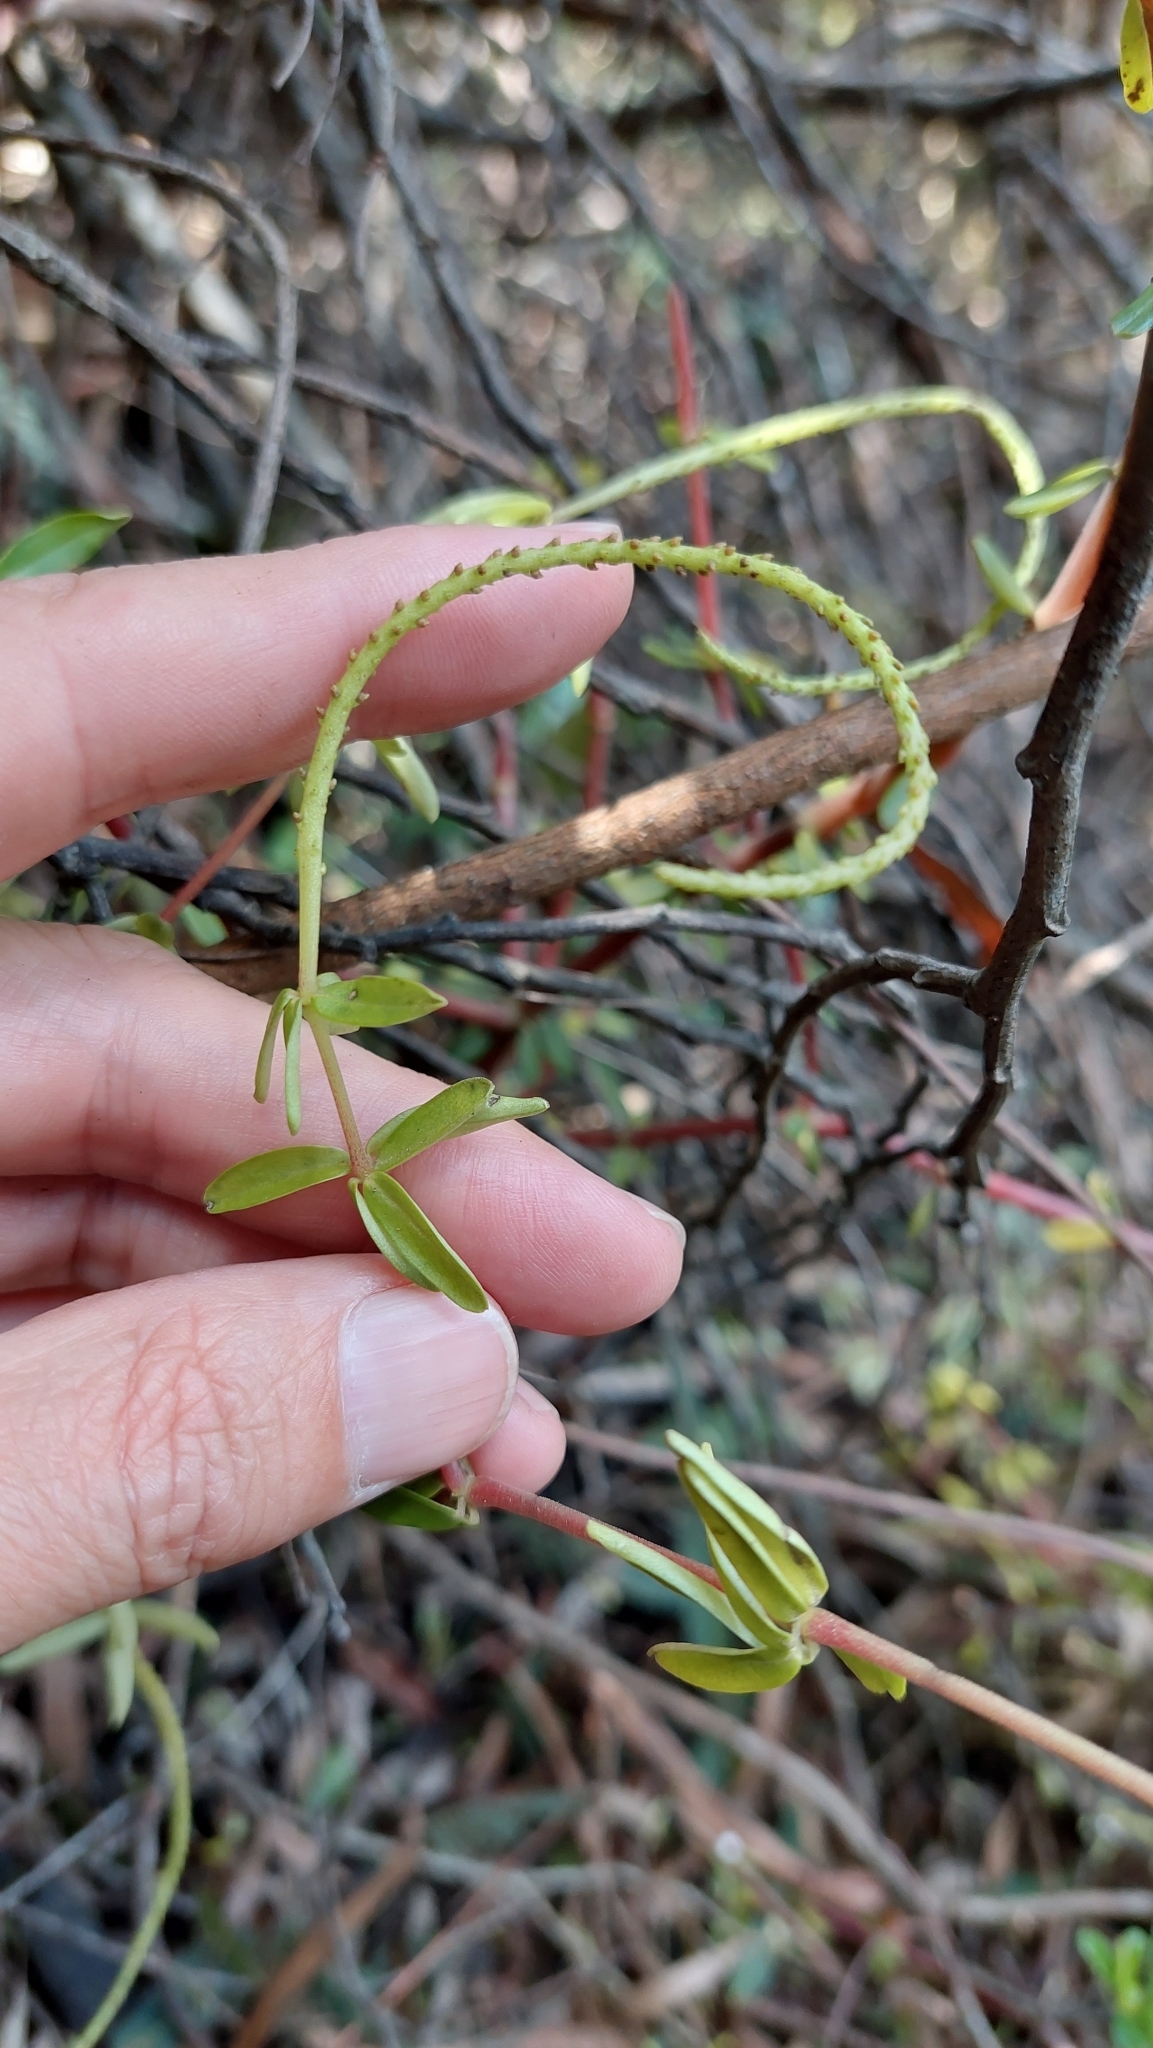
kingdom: Plantae
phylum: Tracheophyta
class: Magnoliopsida
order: Piperales
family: Piperaceae
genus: Peperomia
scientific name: Peperomia galioides
